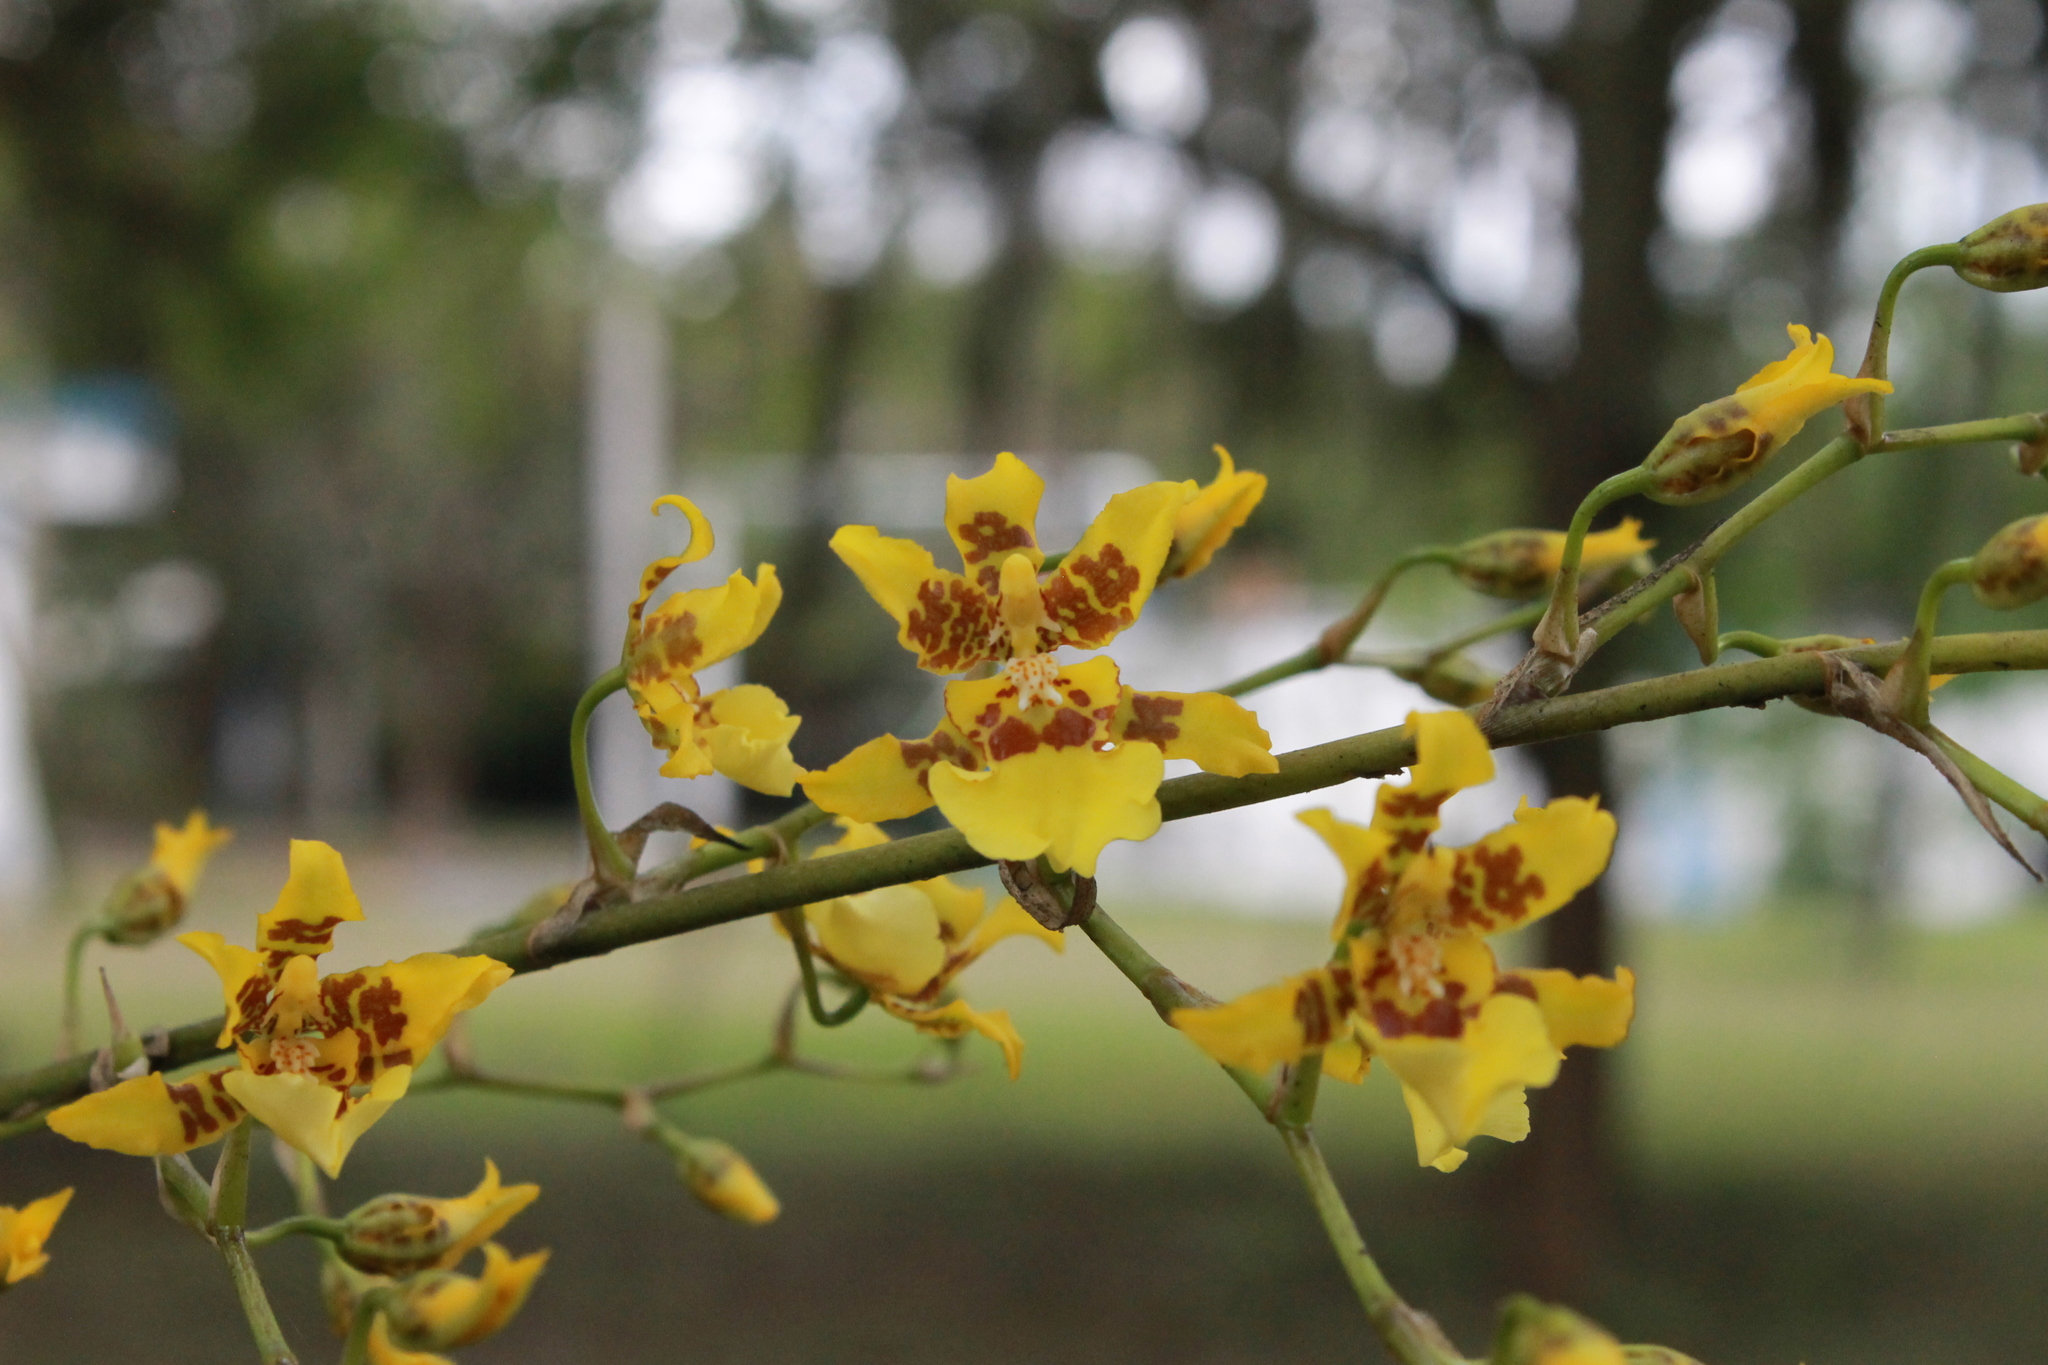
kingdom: Plantae
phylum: Tracheophyta
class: Liliopsida
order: Asparagales
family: Orchidaceae
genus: Oncidium
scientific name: Oncidium sphacelatum
